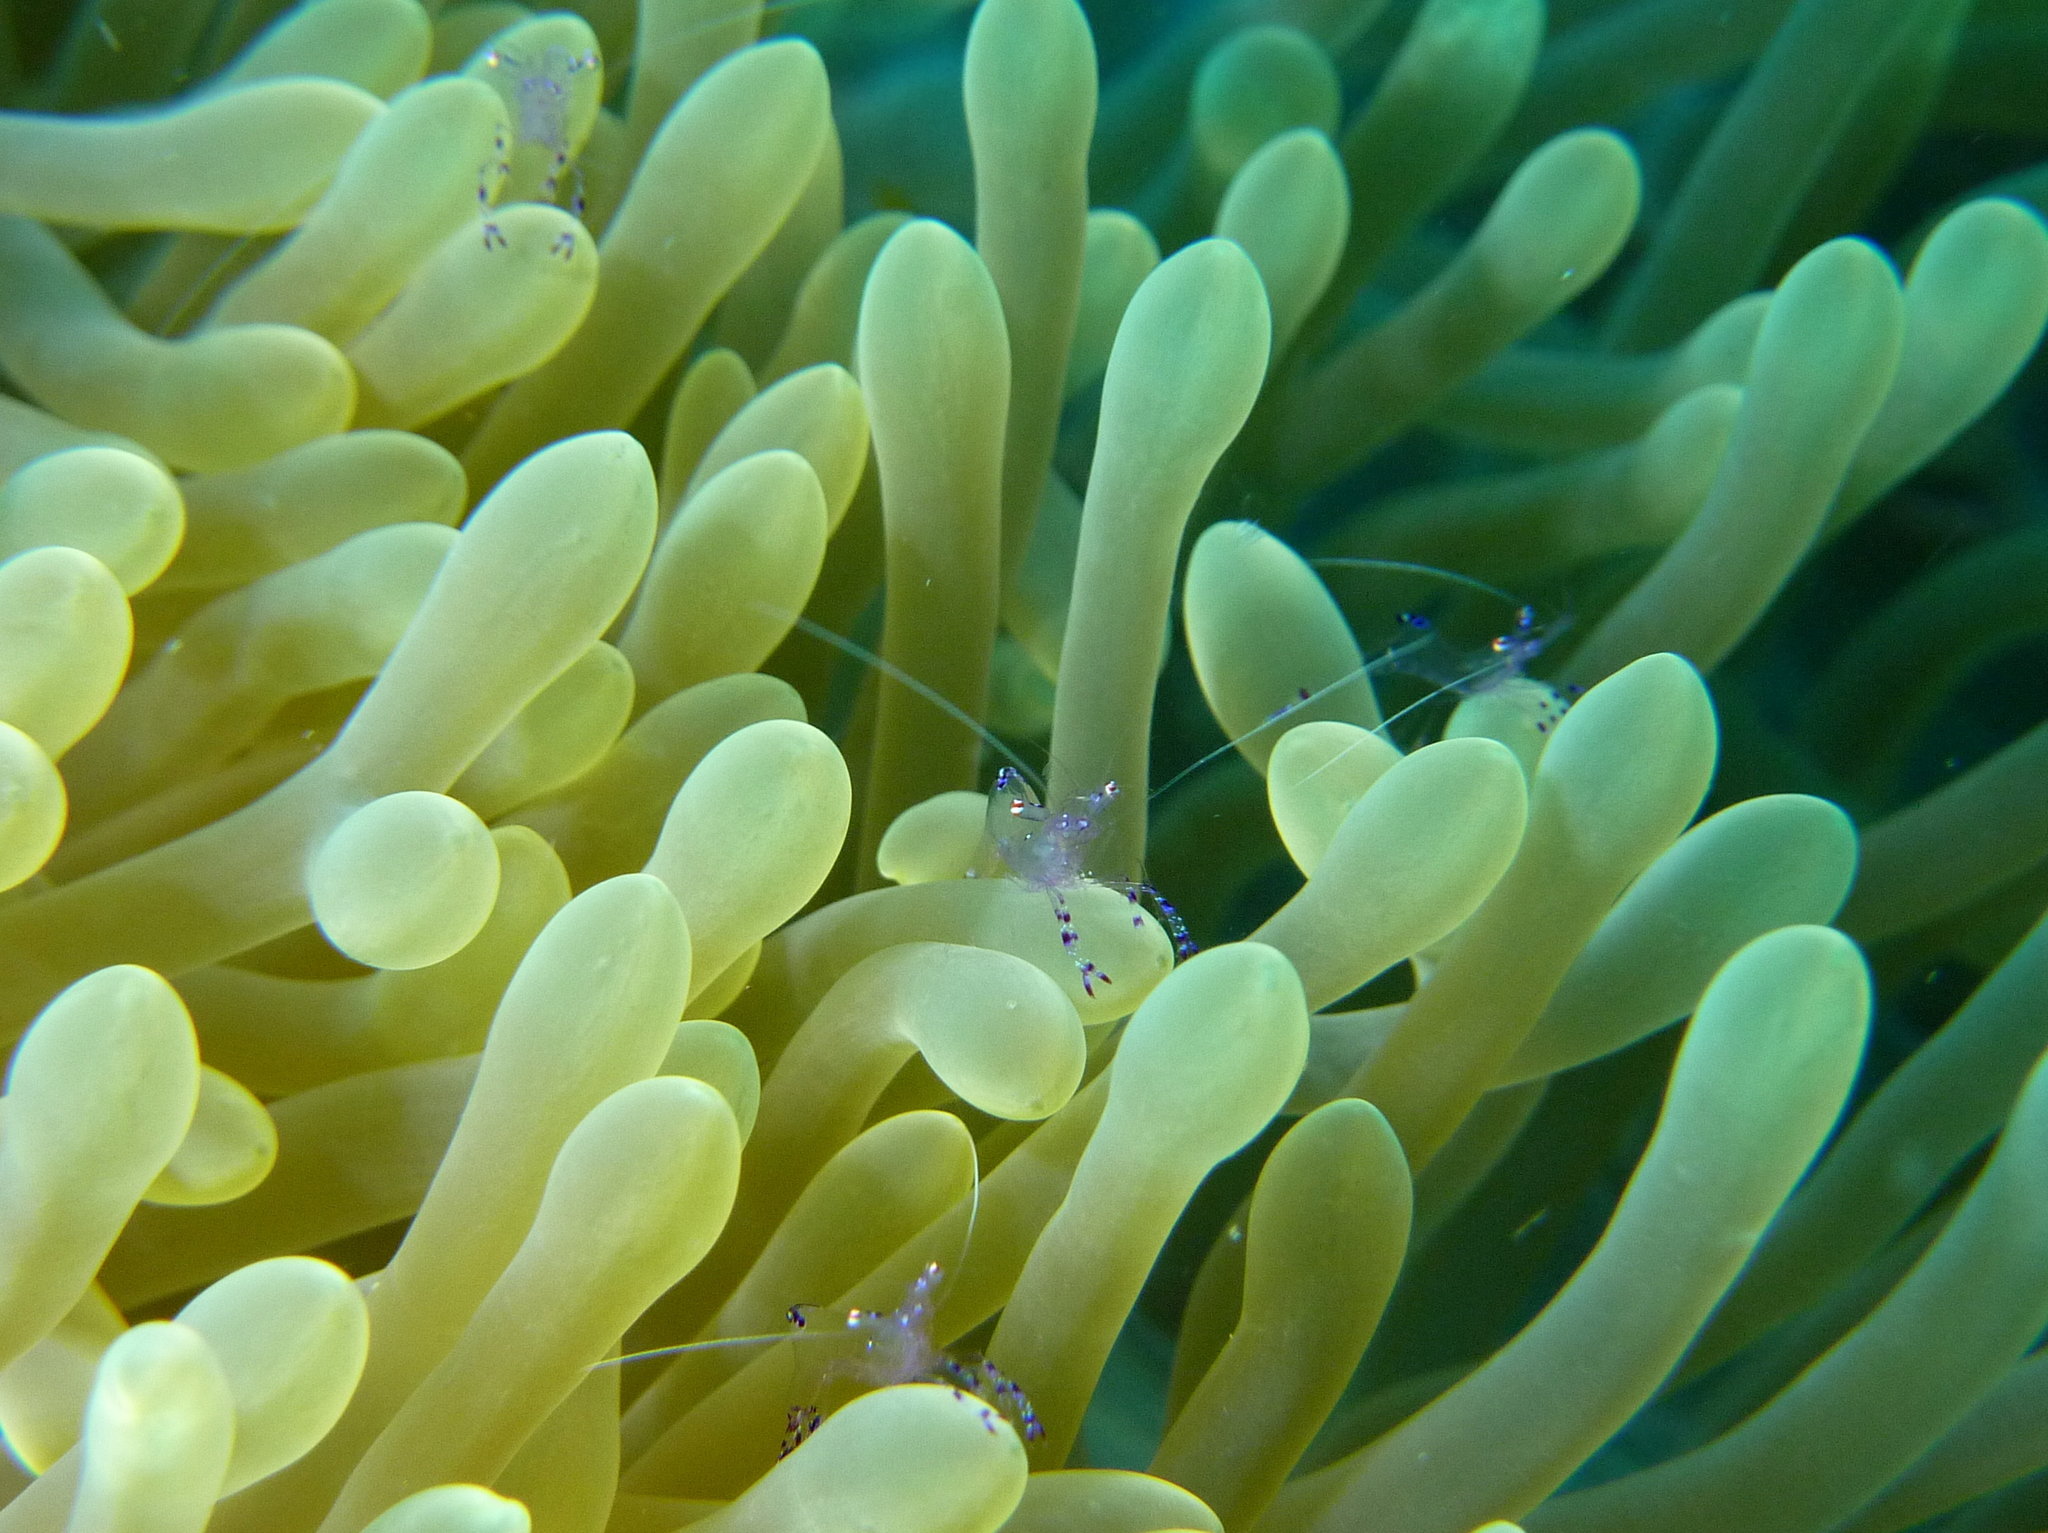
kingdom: Animalia
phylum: Arthropoda
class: Malacostraca
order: Decapoda
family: Palaemonidae
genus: Ancylomenes
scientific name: Ancylomenes sarasvati
